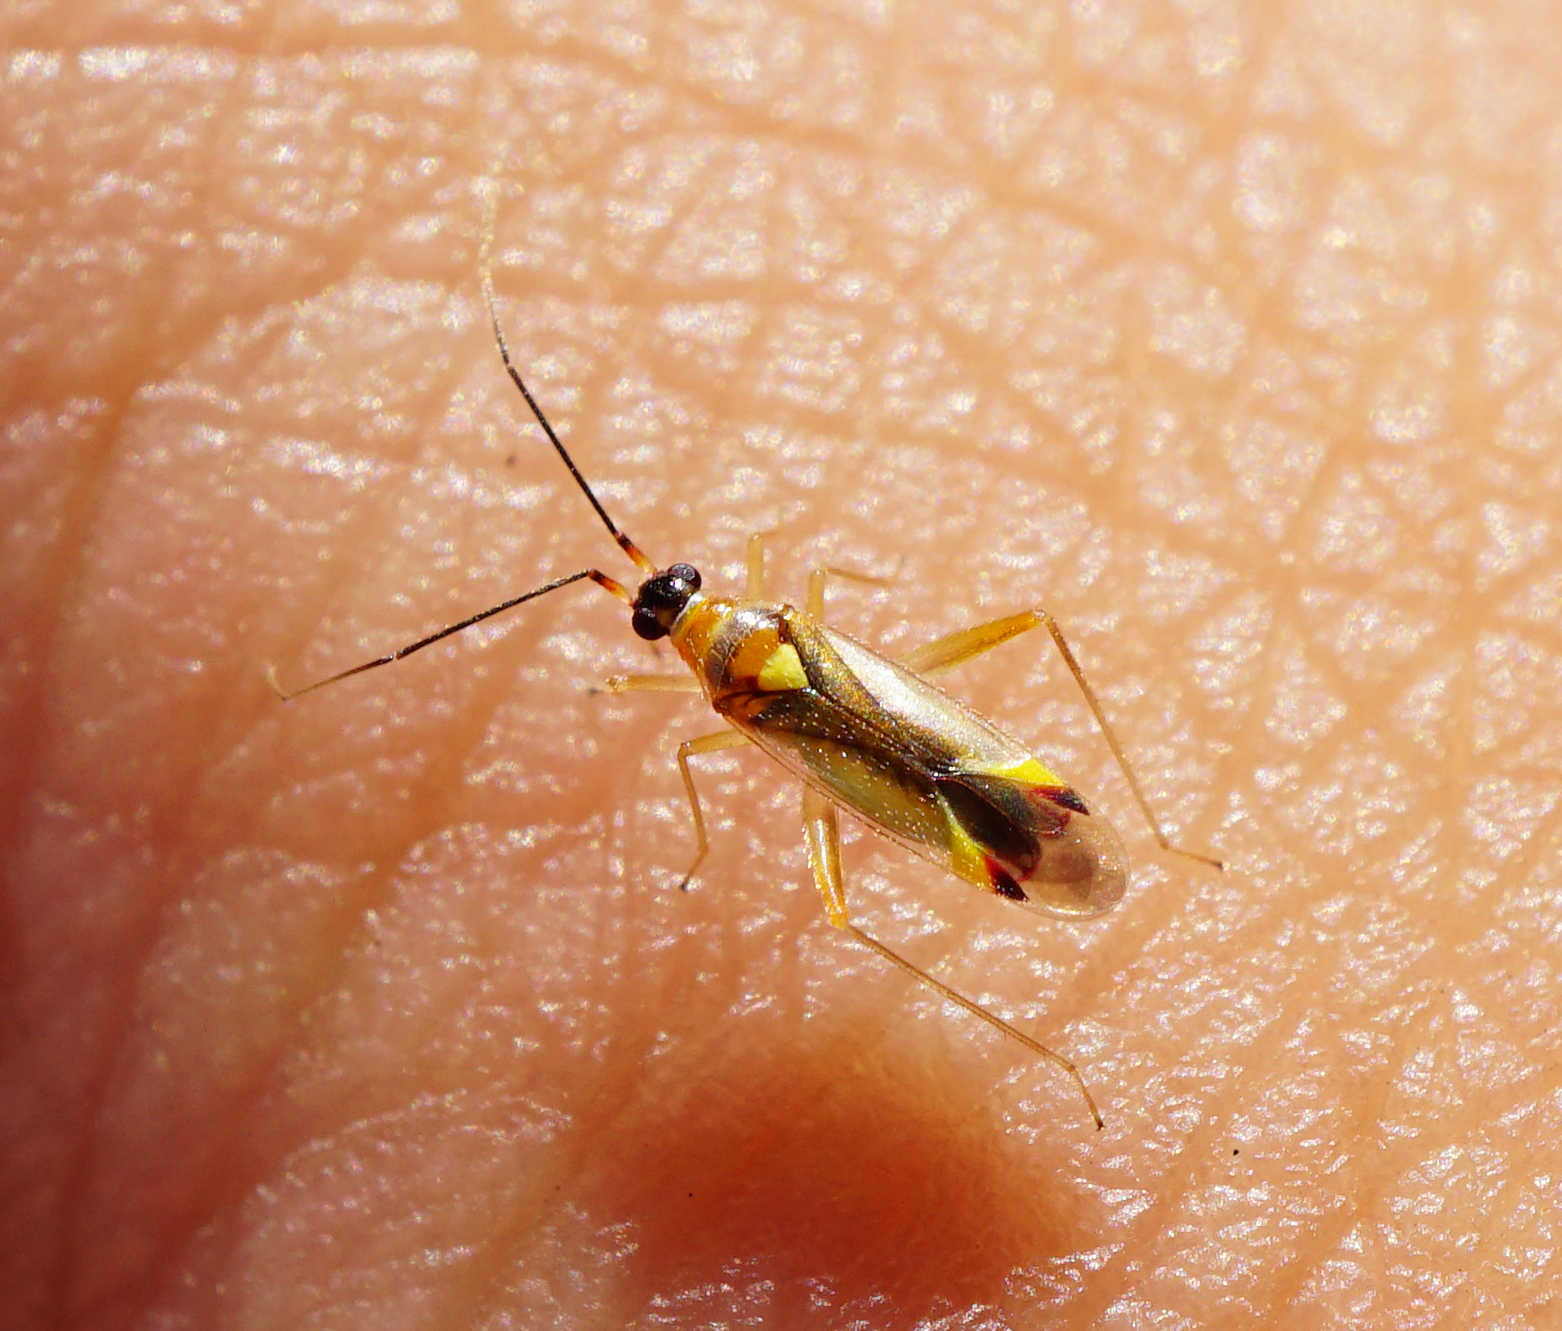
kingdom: Animalia
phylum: Arthropoda
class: Insecta
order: Hemiptera
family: Miridae
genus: Campyloneura
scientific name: Campyloneura virgula
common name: Predatory bug
